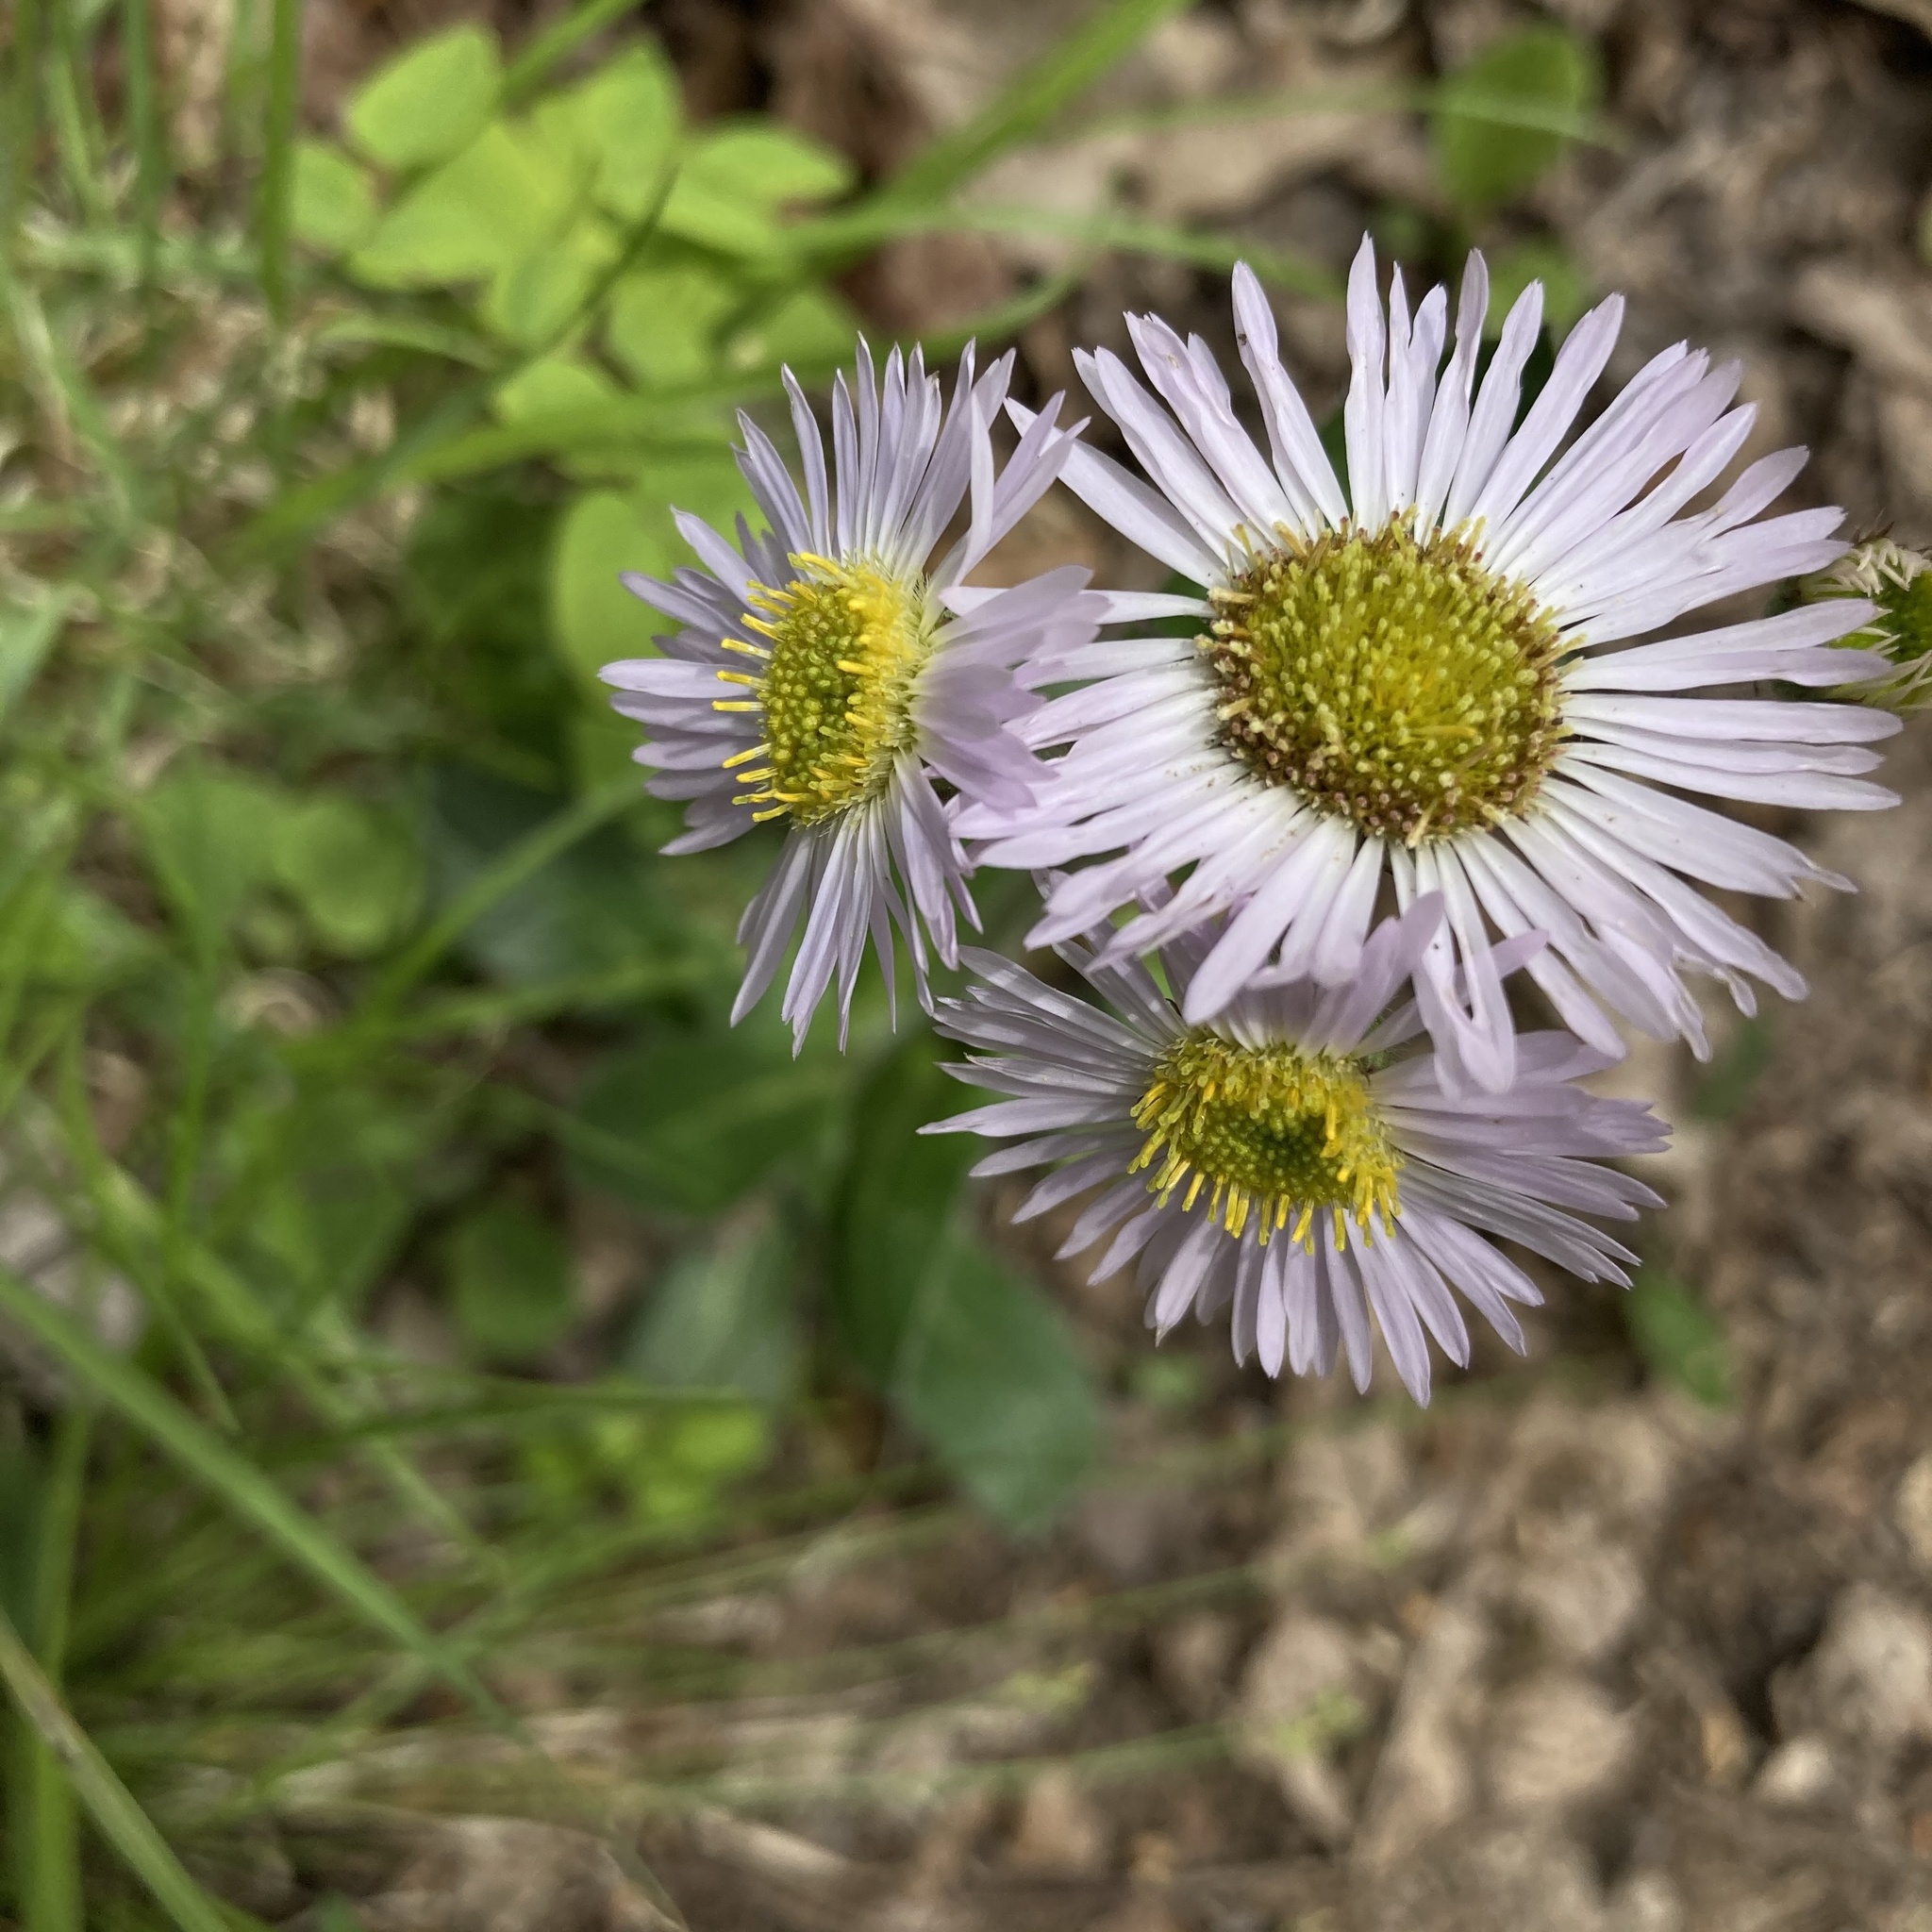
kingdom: Plantae
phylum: Tracheophyta
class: Magnoliopsida
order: Asterales
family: Asteraceae
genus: Erigeron
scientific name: Erigeron pulchellus
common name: Hairy fleabane
